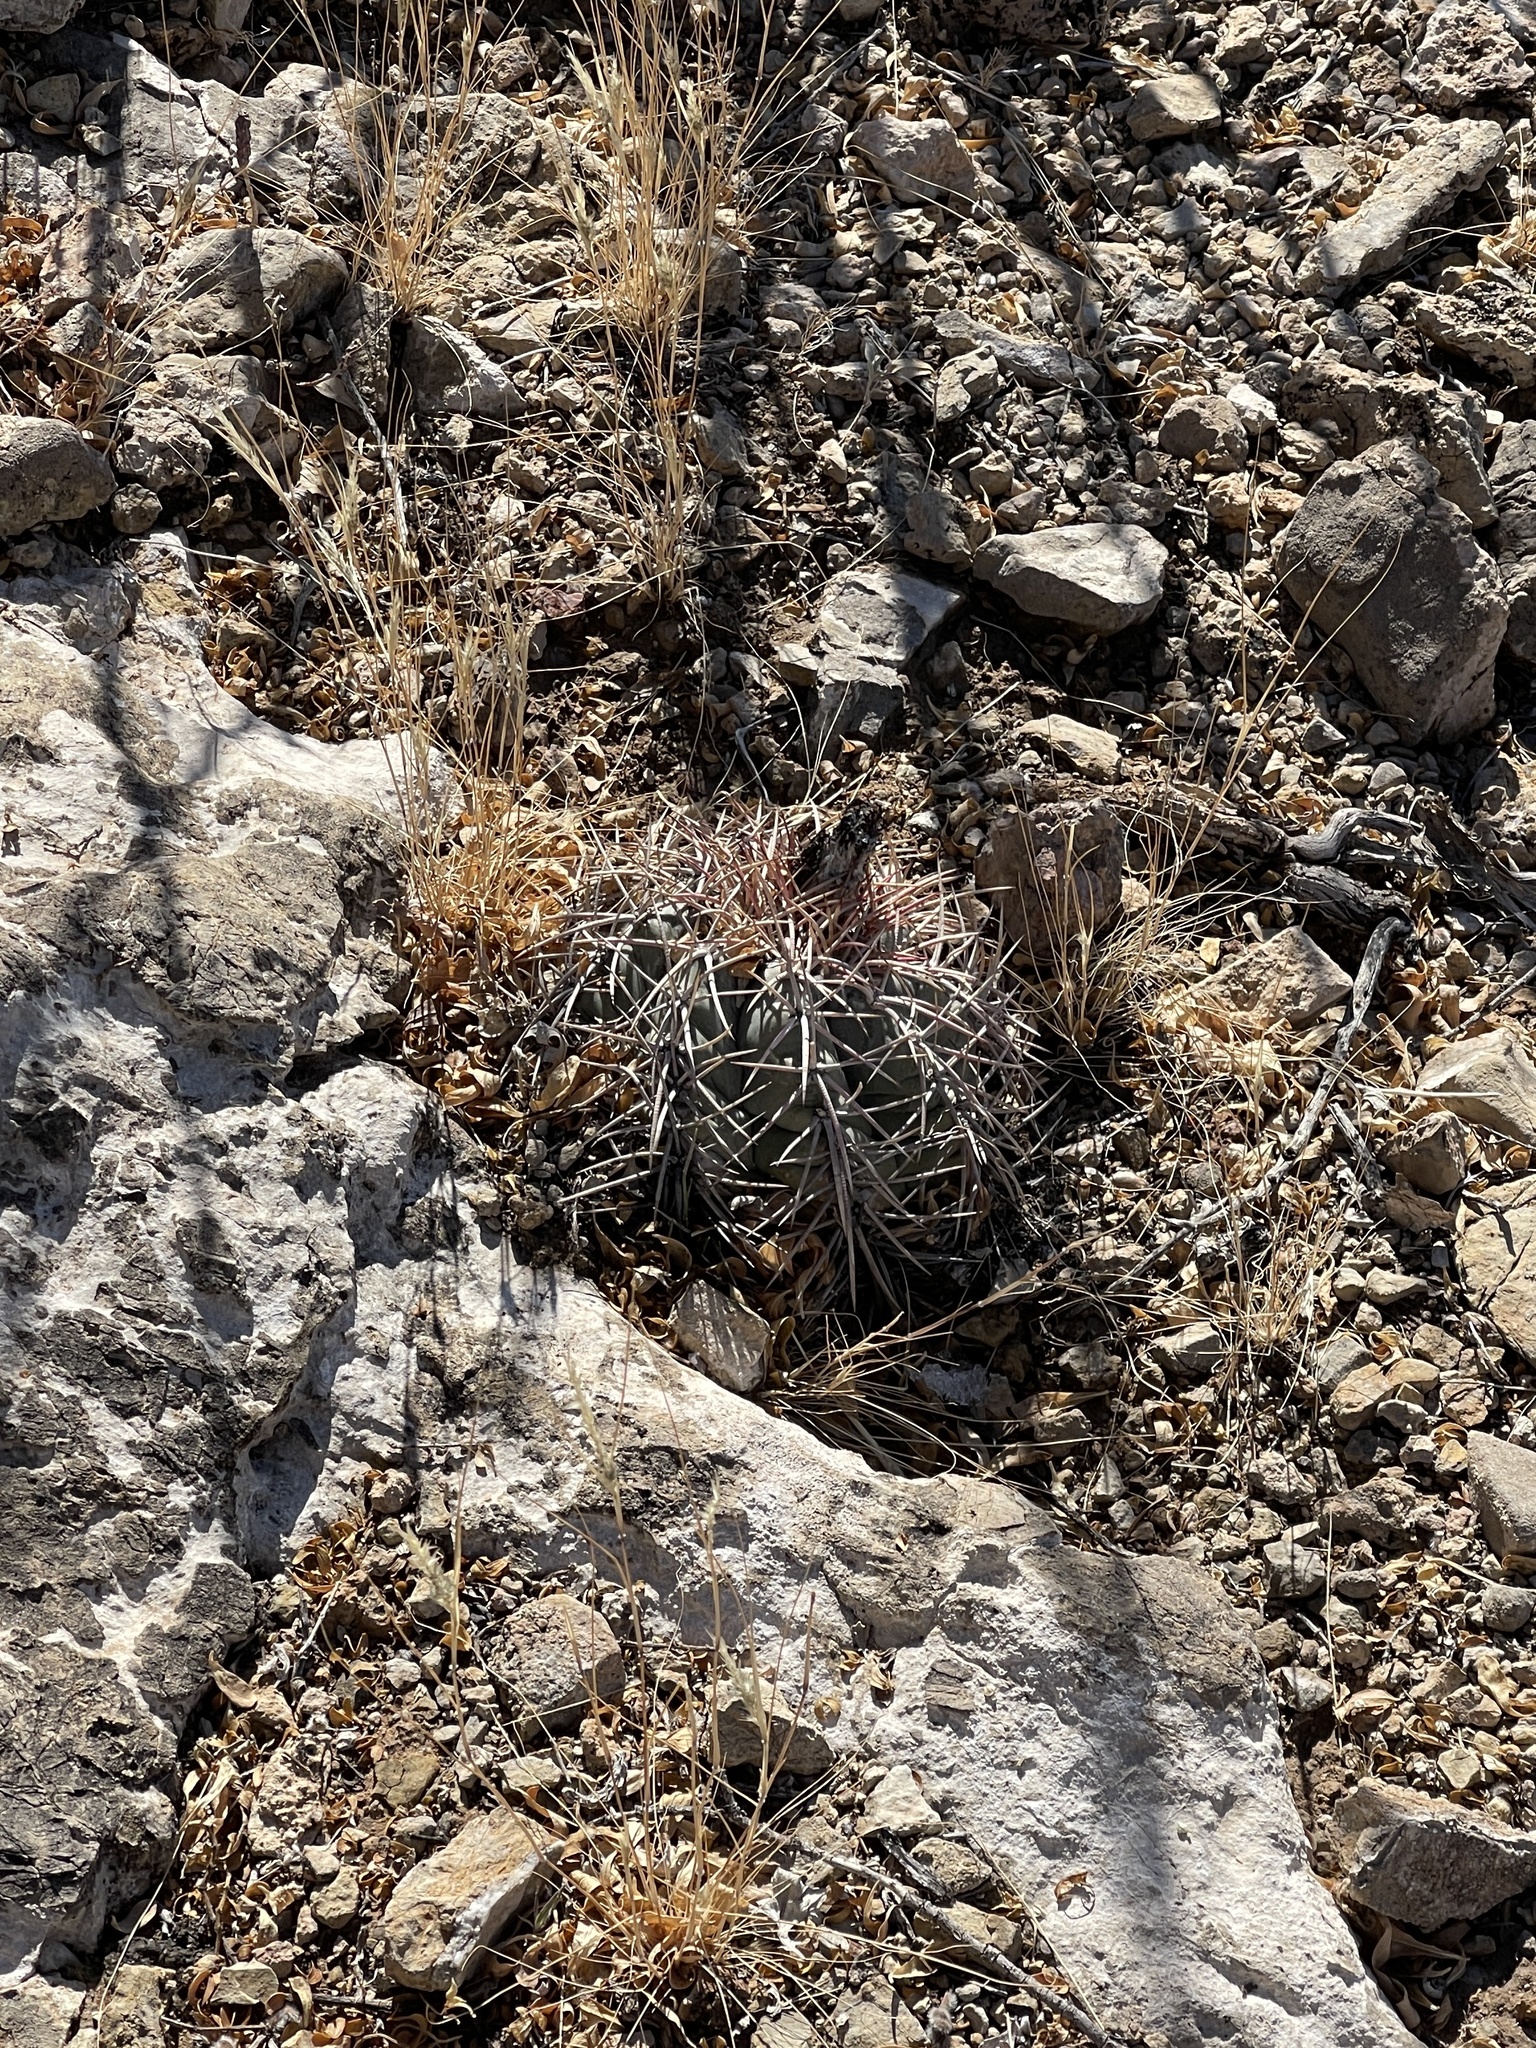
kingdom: Plantae
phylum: Tracheophyta
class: Magnoliopsida
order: Caryophyllales
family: Cactaceae
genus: Echinocactus
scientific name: Echinocactus horizonthalonius
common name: Devilshead
